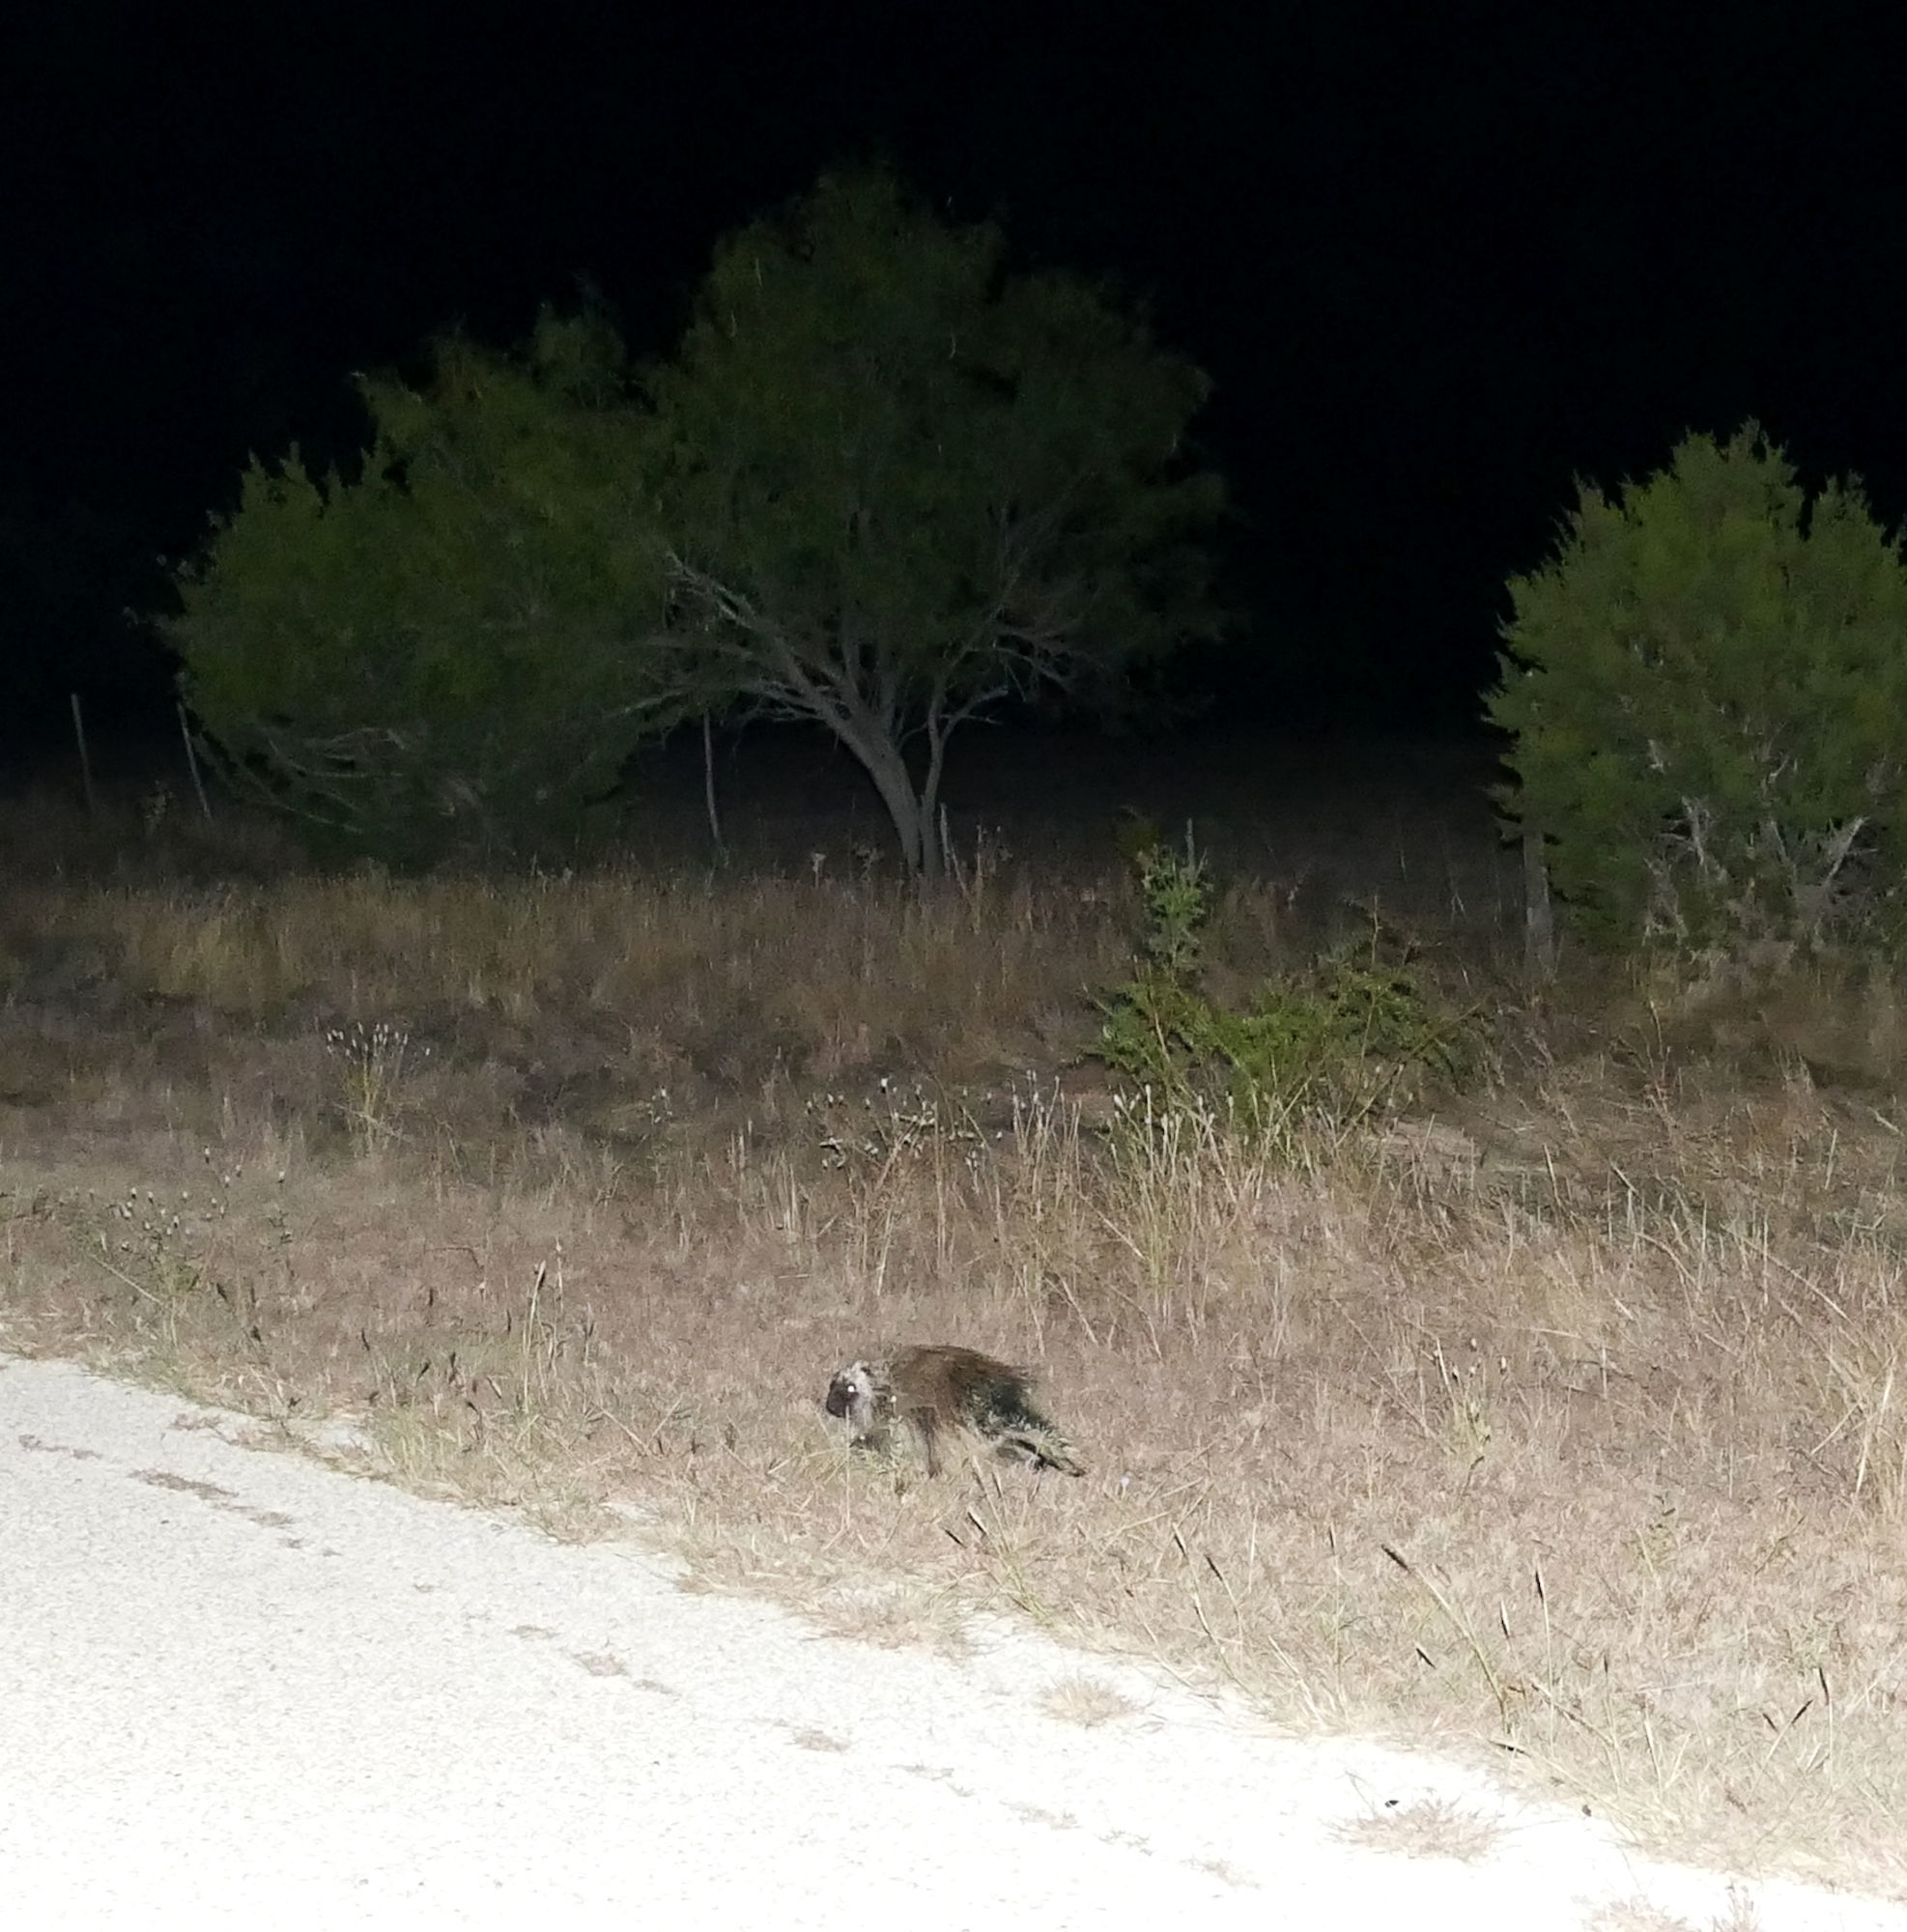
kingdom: Animalia
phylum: Chordata
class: Mammalia
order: Rodentia
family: Erethizontidae
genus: Erethizon
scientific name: Erethizon dorsatus
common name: North american porcupine
